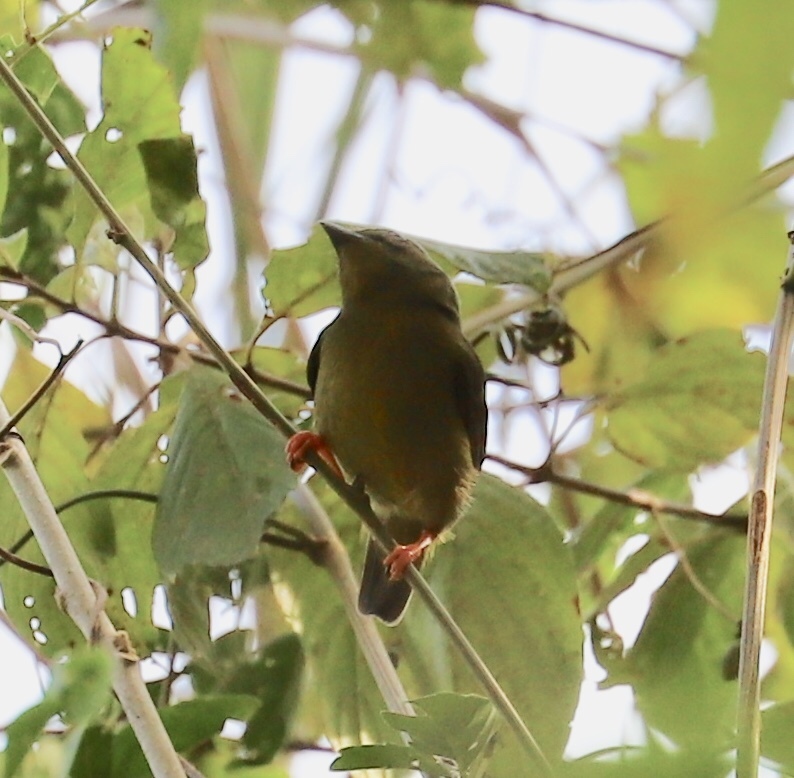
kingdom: Animalia
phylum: Chordata
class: Aves
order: Passeriformes
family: Pipridae
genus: Manacus
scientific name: Manacus vitellinus
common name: Golden-collared manakin
